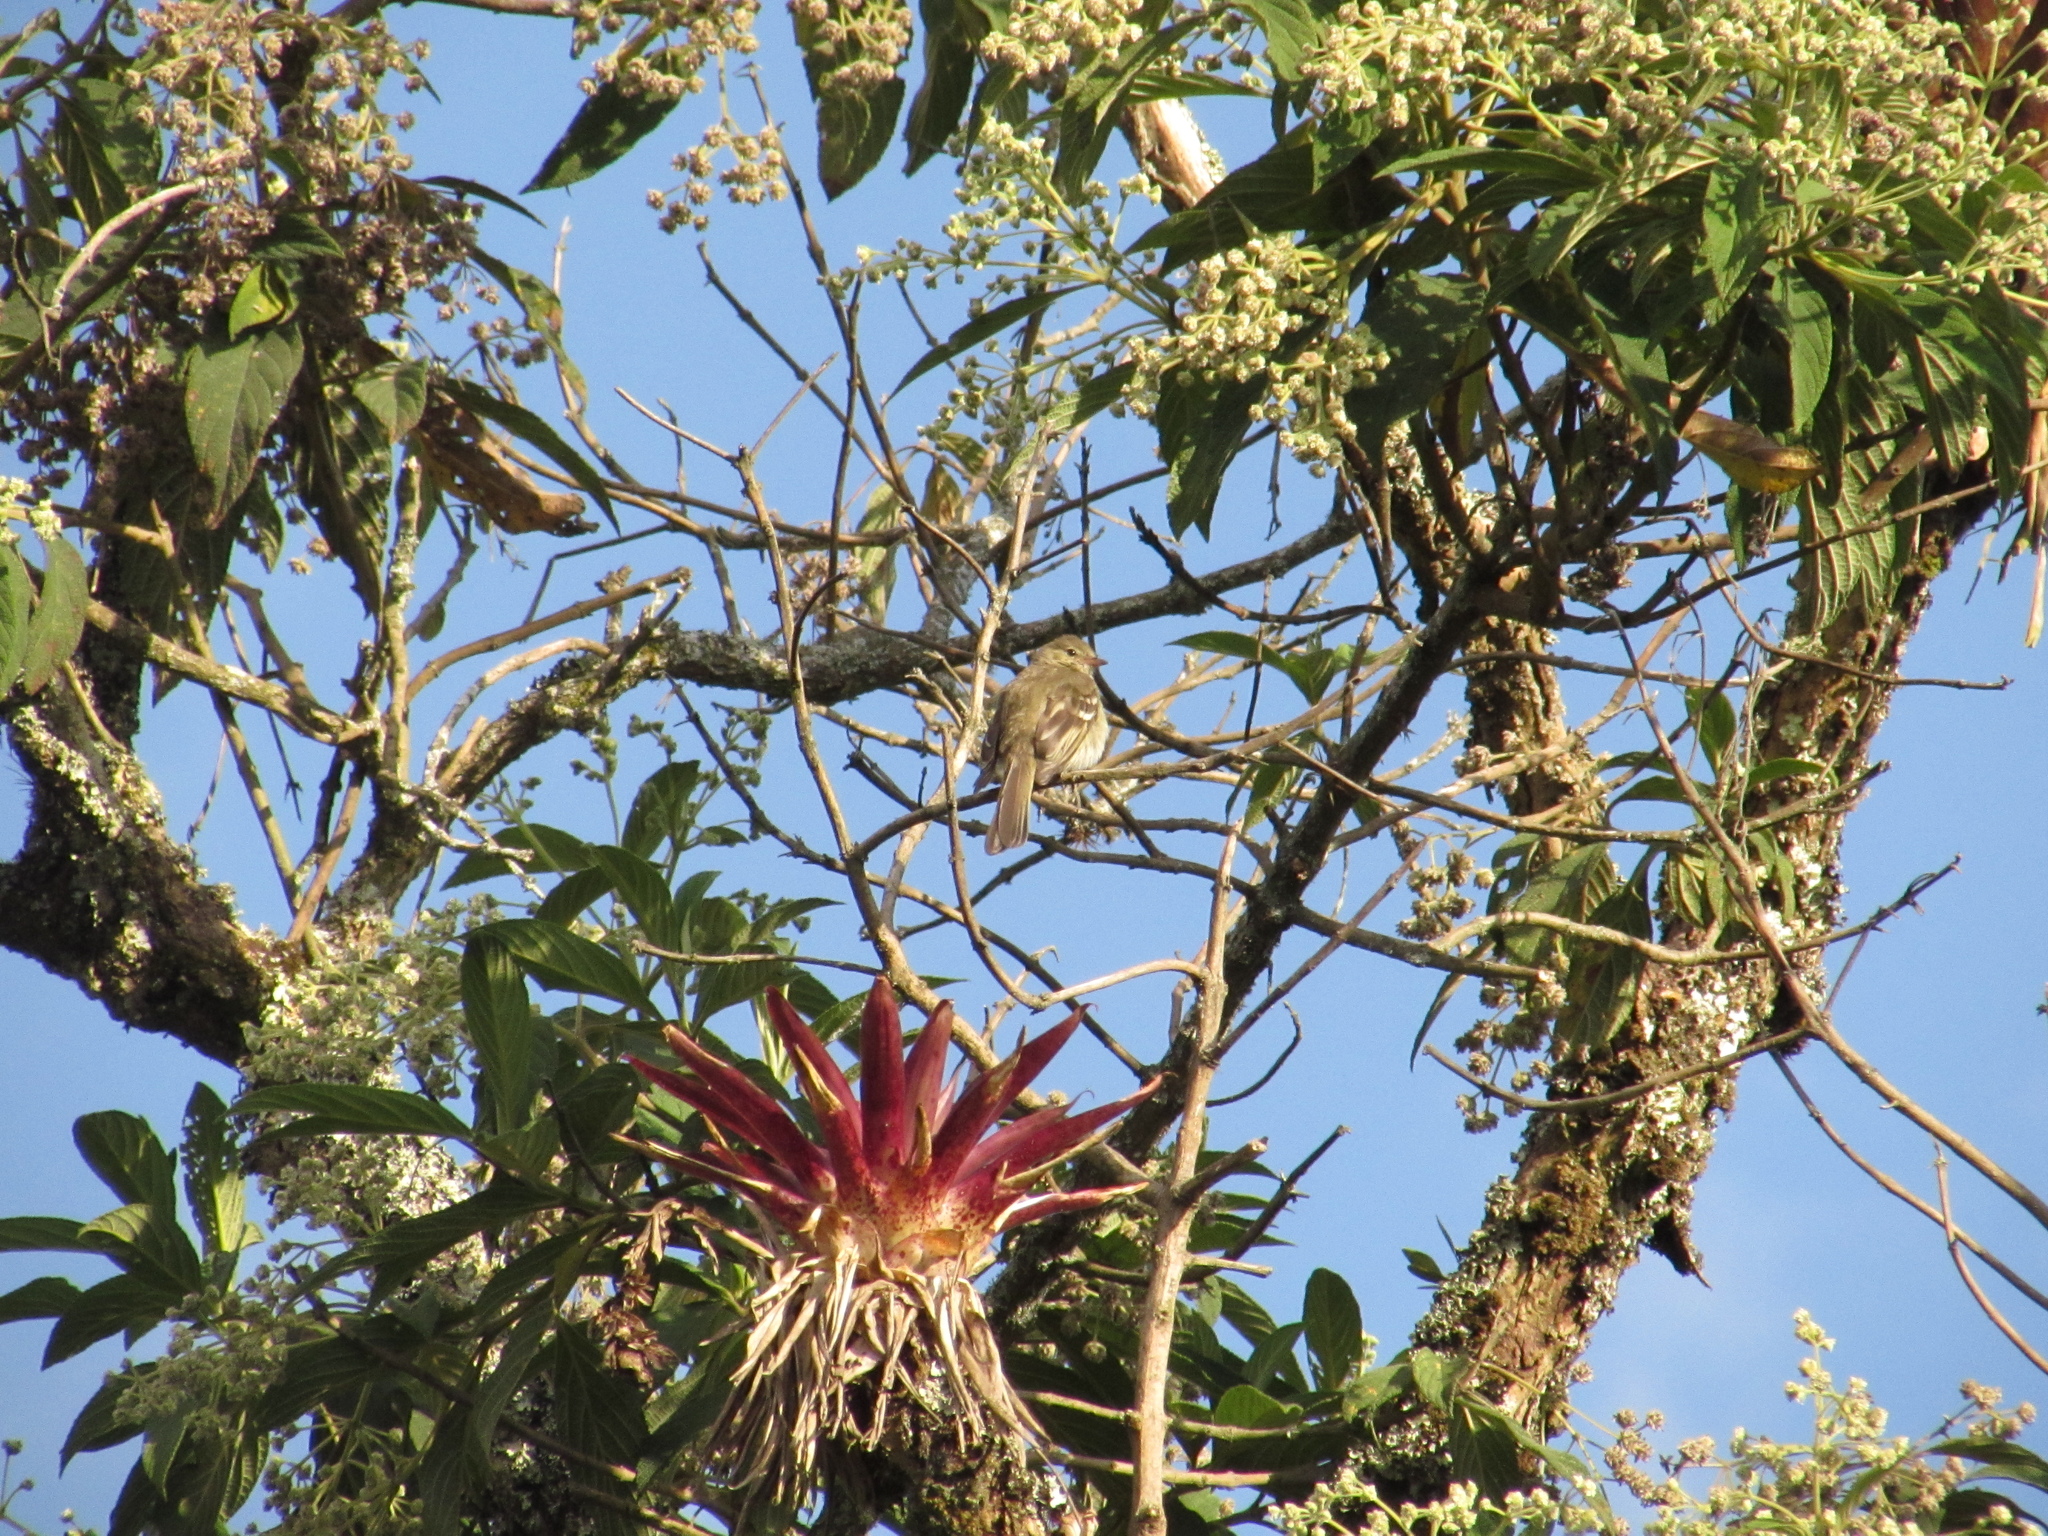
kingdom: Animalia
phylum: Chordata
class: Aves
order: Passeriformes
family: Tyrannidae
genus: Elaenia
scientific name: Elaenia frantzii
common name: Mountain elaenia
